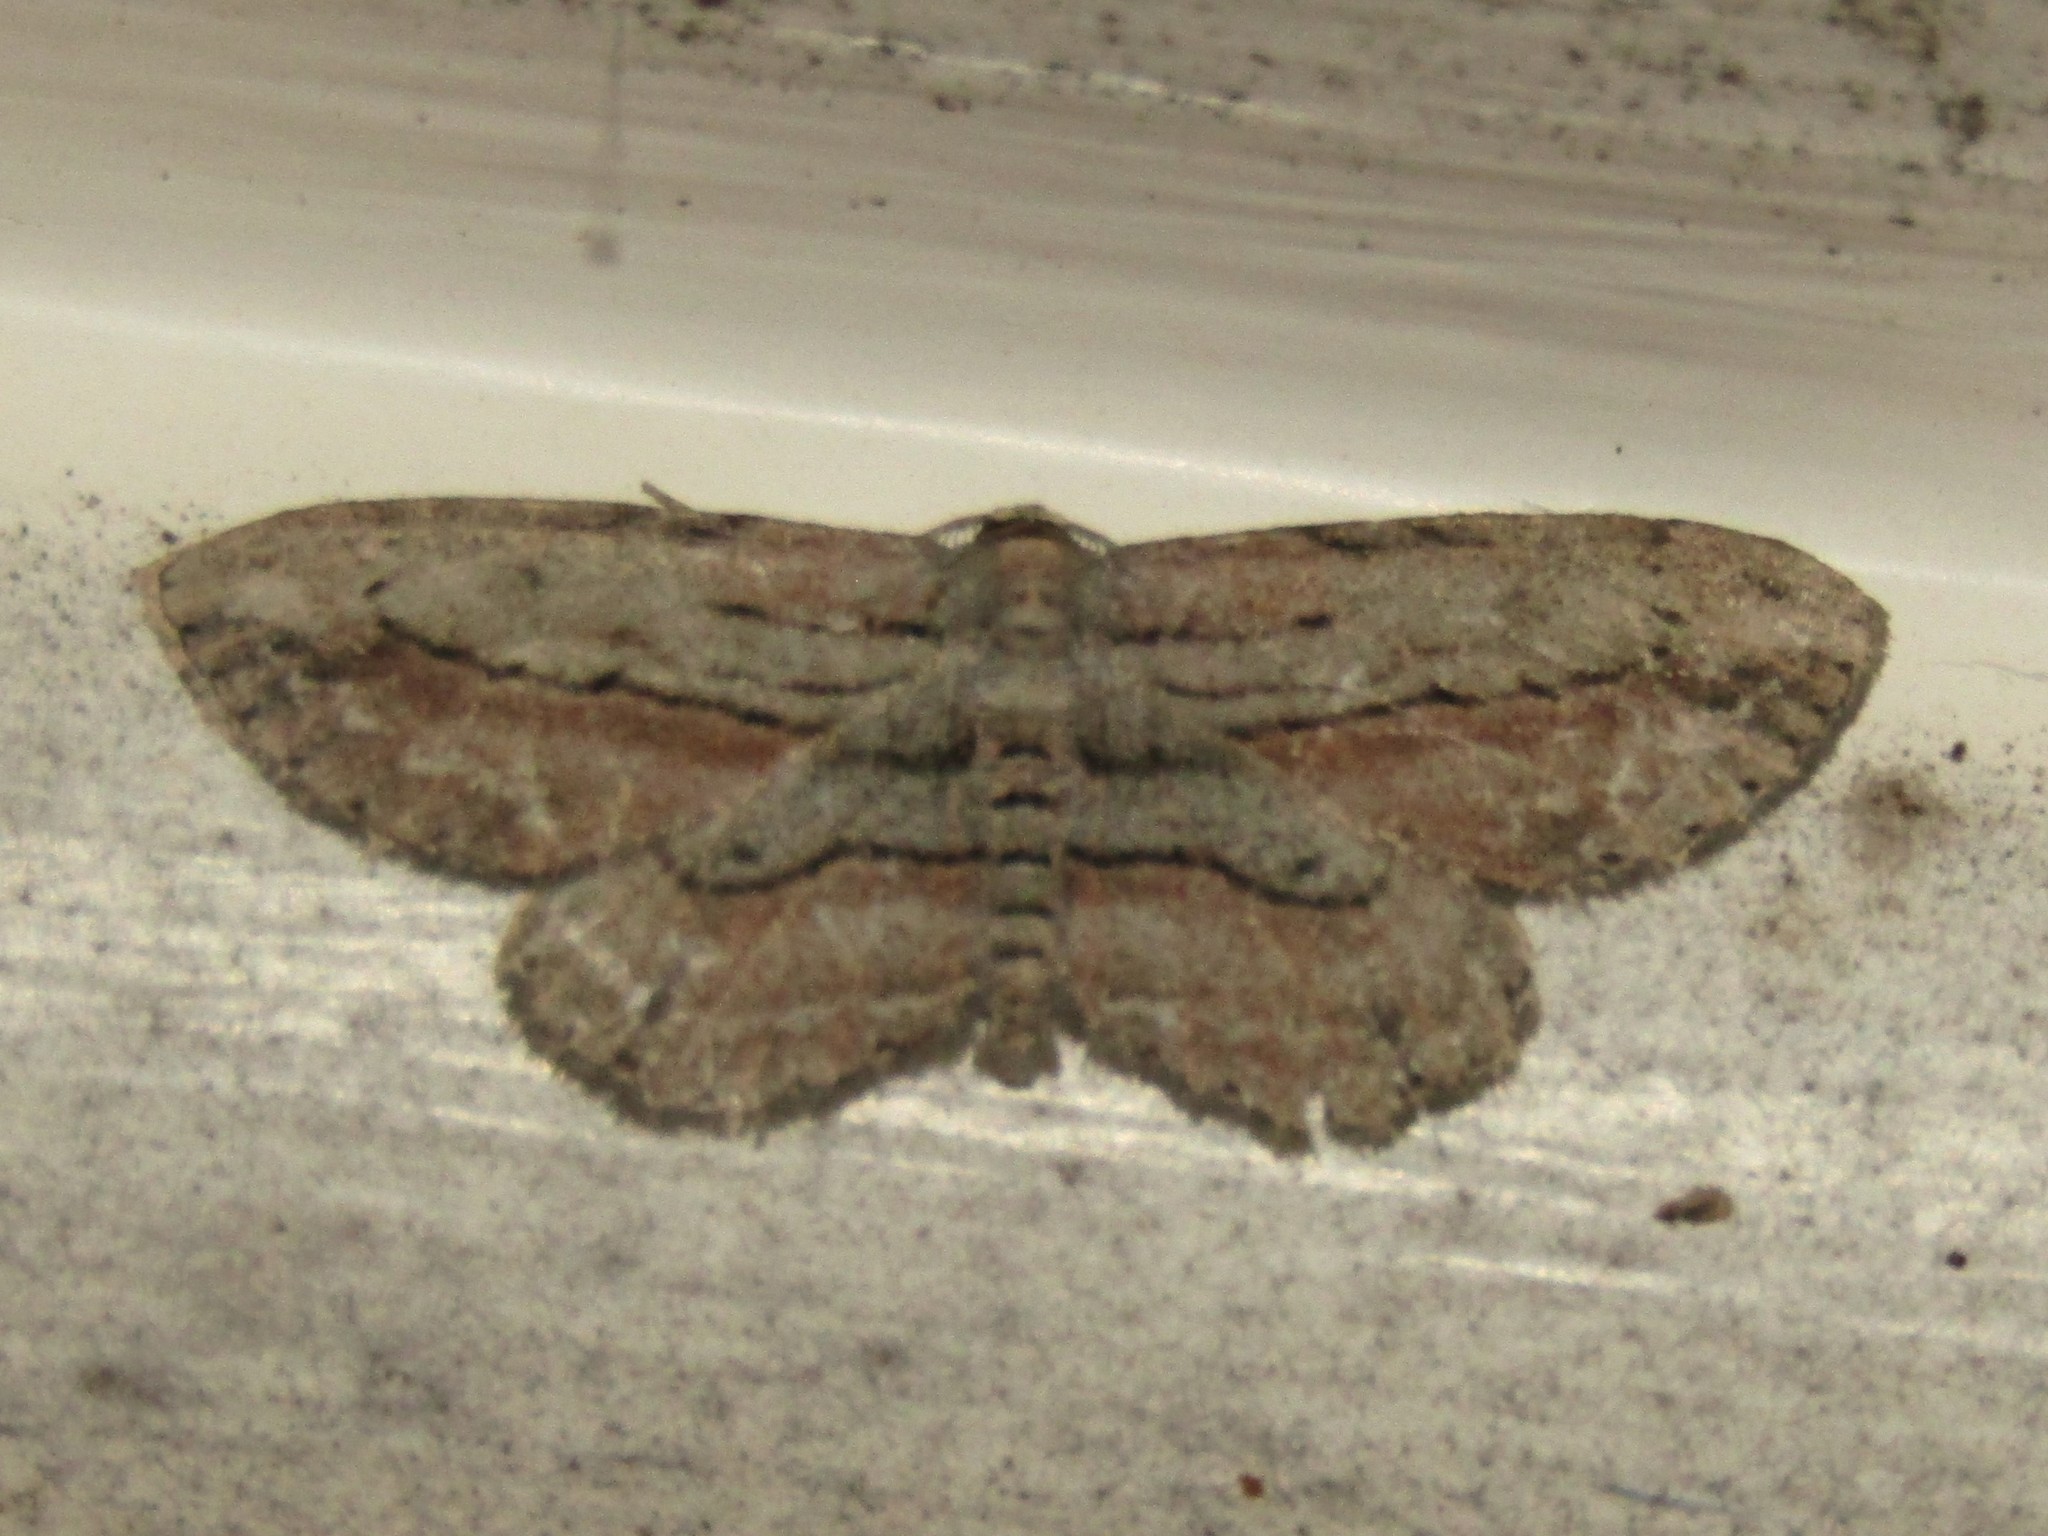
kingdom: Animalia
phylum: Arthropoda
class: Insecta
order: Lepidoptera
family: Geometridae
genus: Glena
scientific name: Glena plumosaria
